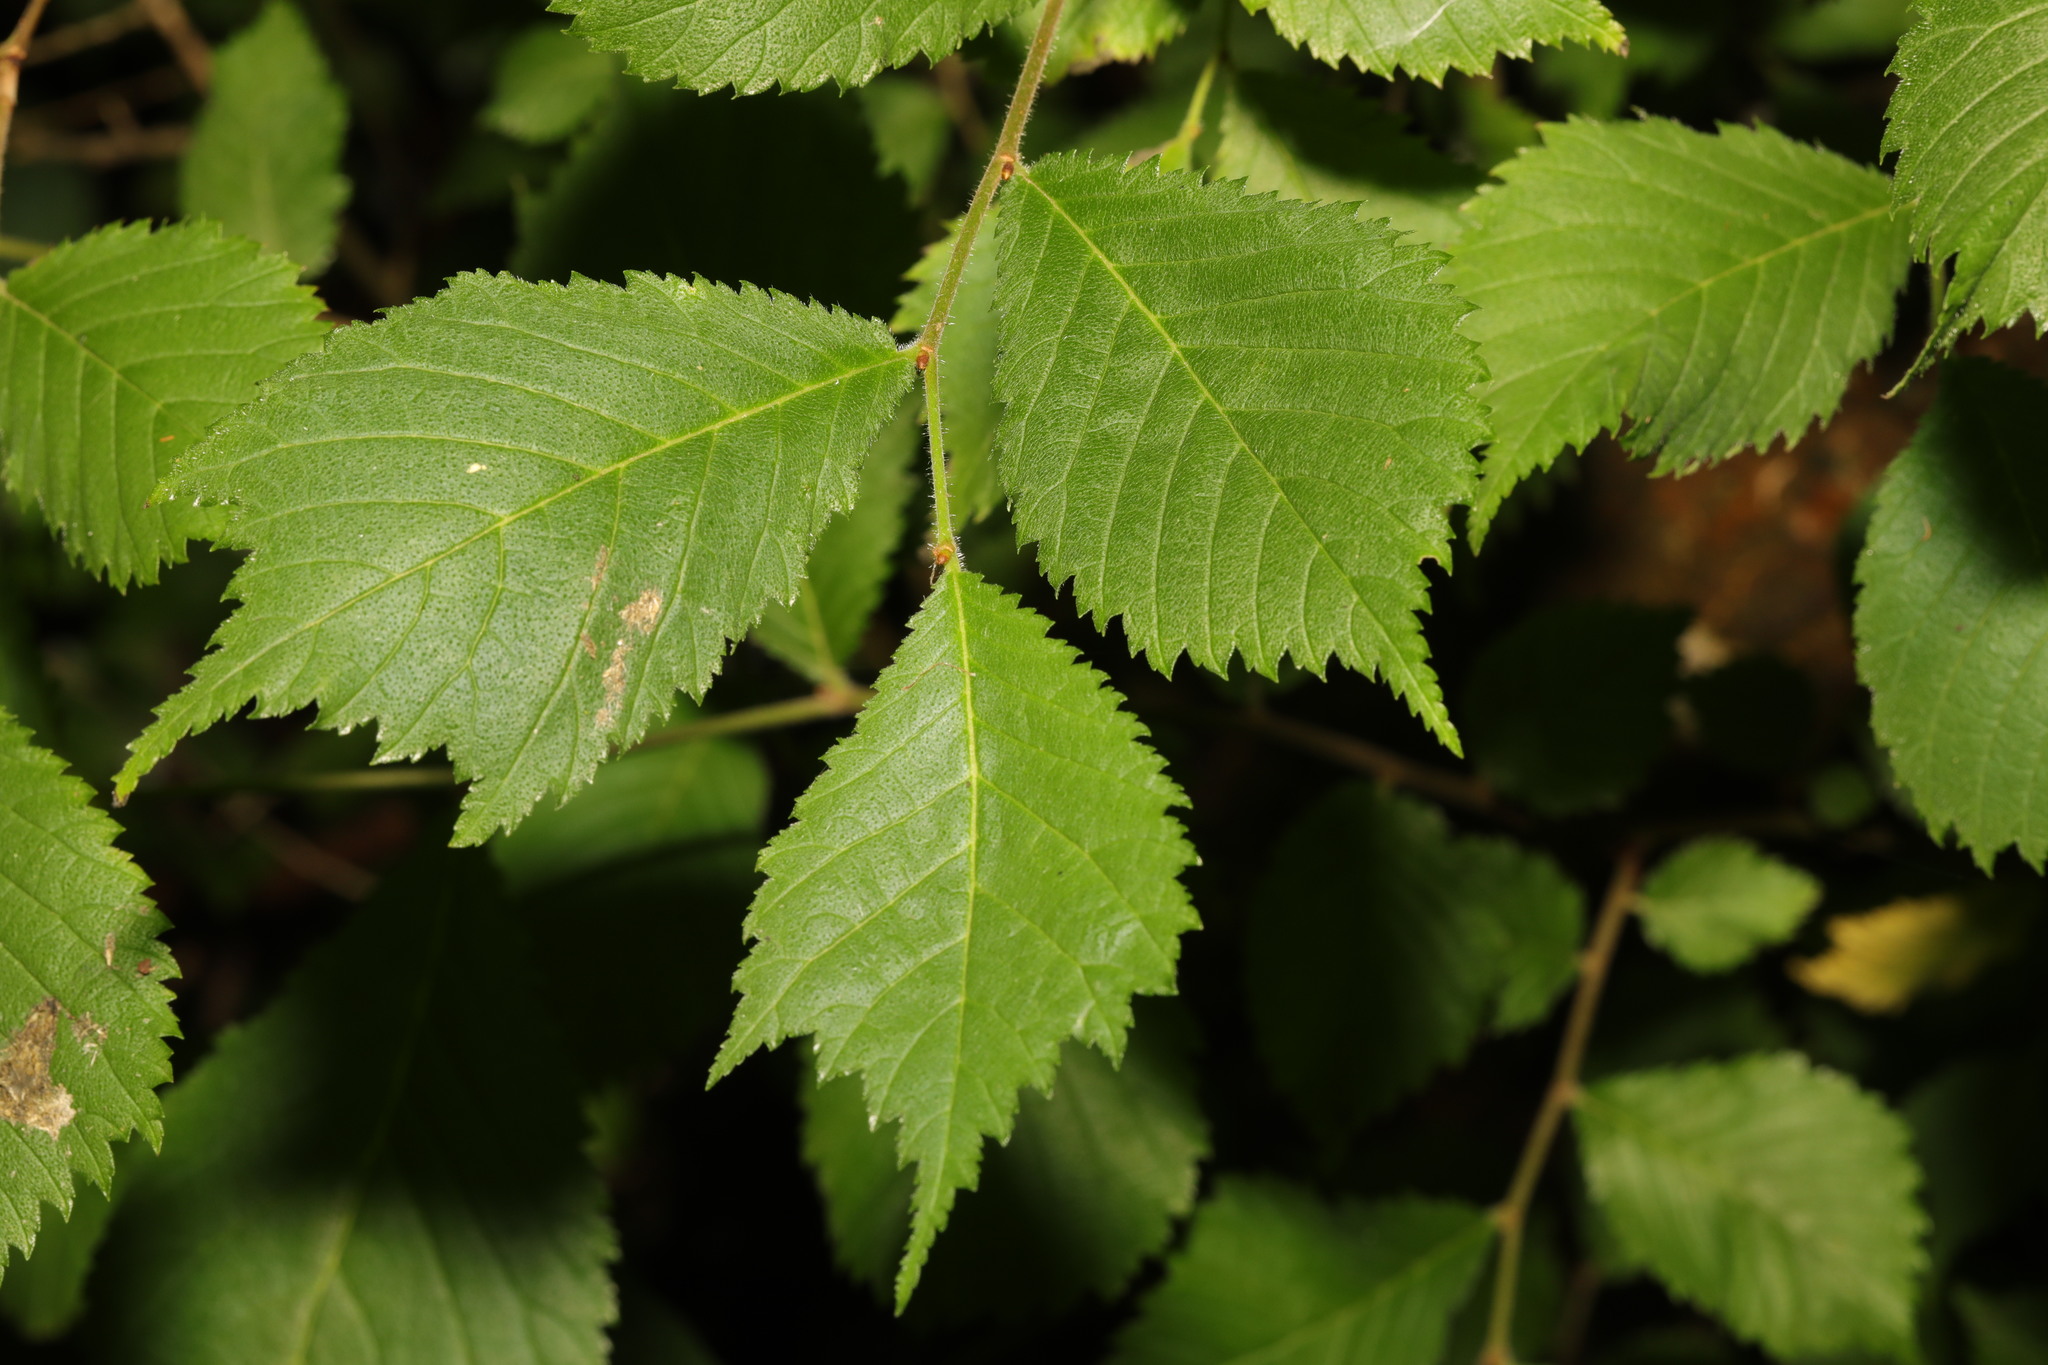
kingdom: Plantae
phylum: Tracheophyta
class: Magnoliopsida
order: Rosales
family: Ulmaceae
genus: Ulmus
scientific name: Ulmus glabra
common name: Wych elm
